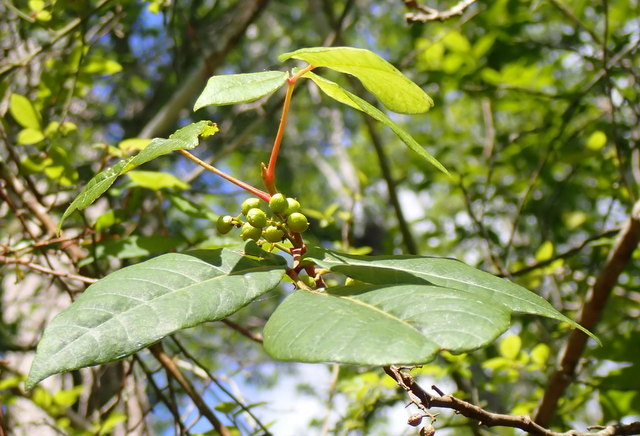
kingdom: Plantae
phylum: Tracheophyta
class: Magnoliopsida
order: Sapindales
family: Anacardiaceae
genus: Toxicodendron
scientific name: Toxicodendron radicans
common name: Poison ivy
